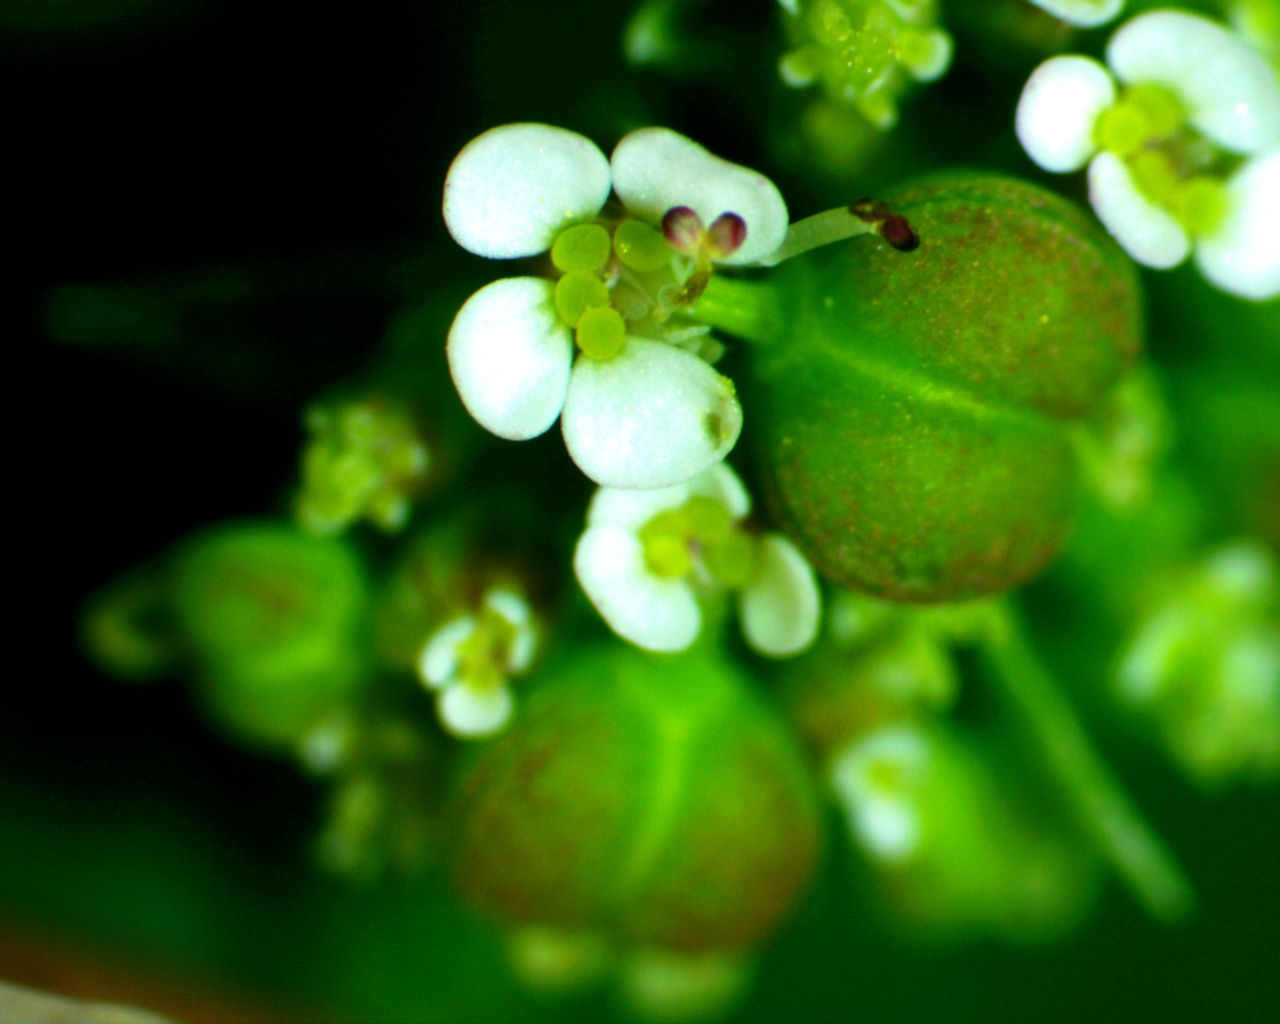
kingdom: Plantae
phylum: Tracheophyta
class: Magnoliopsida
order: Malpighiales
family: Euphorbiaceae
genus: Euphorbia
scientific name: Euphorbia hypericifolia
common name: Graceful sandmat
